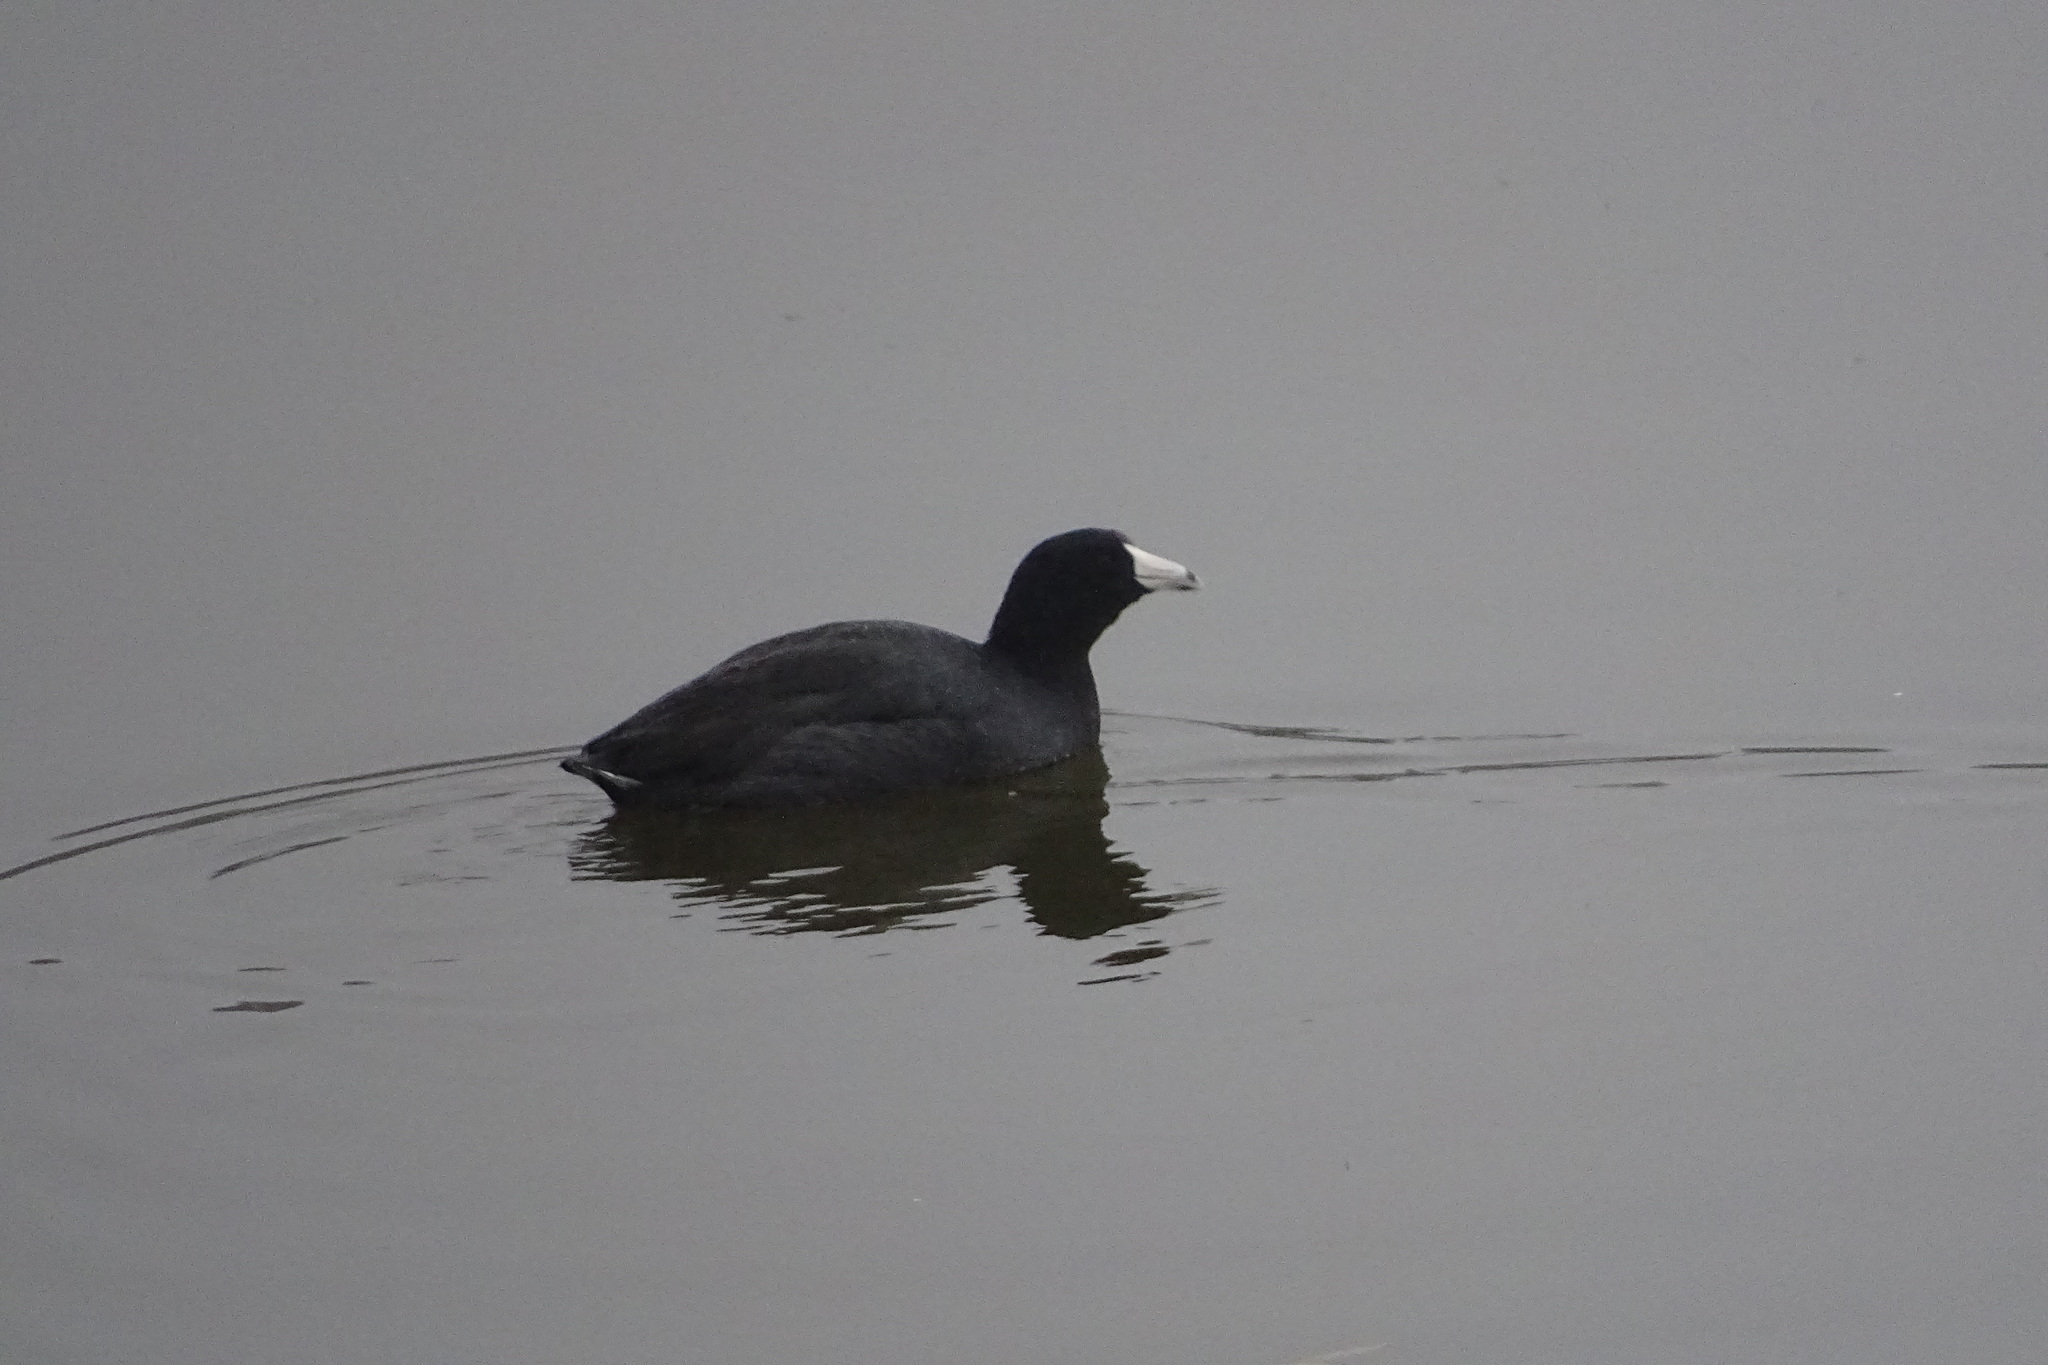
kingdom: Animalia
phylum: Chordata
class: Aves
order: Gruiformes
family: Rallidae
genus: Fulica
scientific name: Fulica americana
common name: American coot
